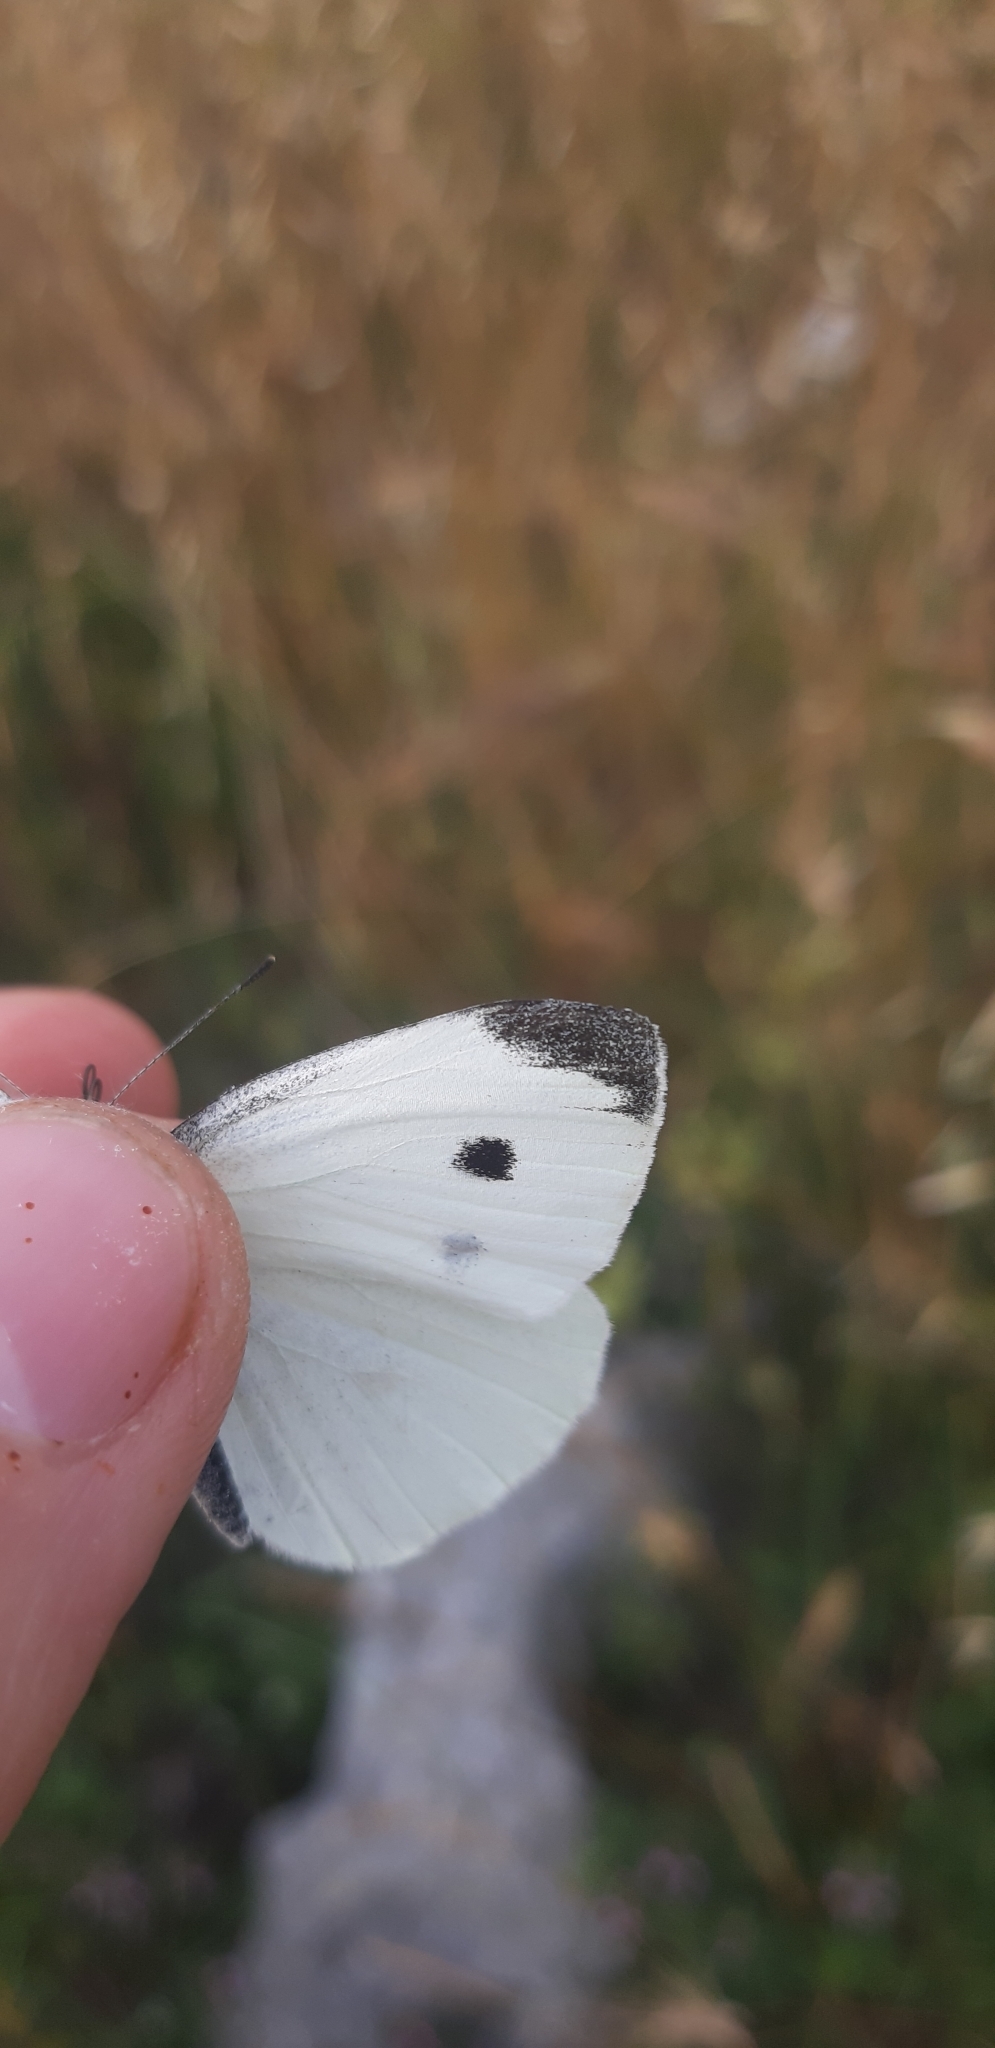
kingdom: Animalia
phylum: Arthropoda
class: Insecta
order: Lepidoptera
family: Pieridae
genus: Pieris
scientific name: Pieris rapae
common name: Small white
